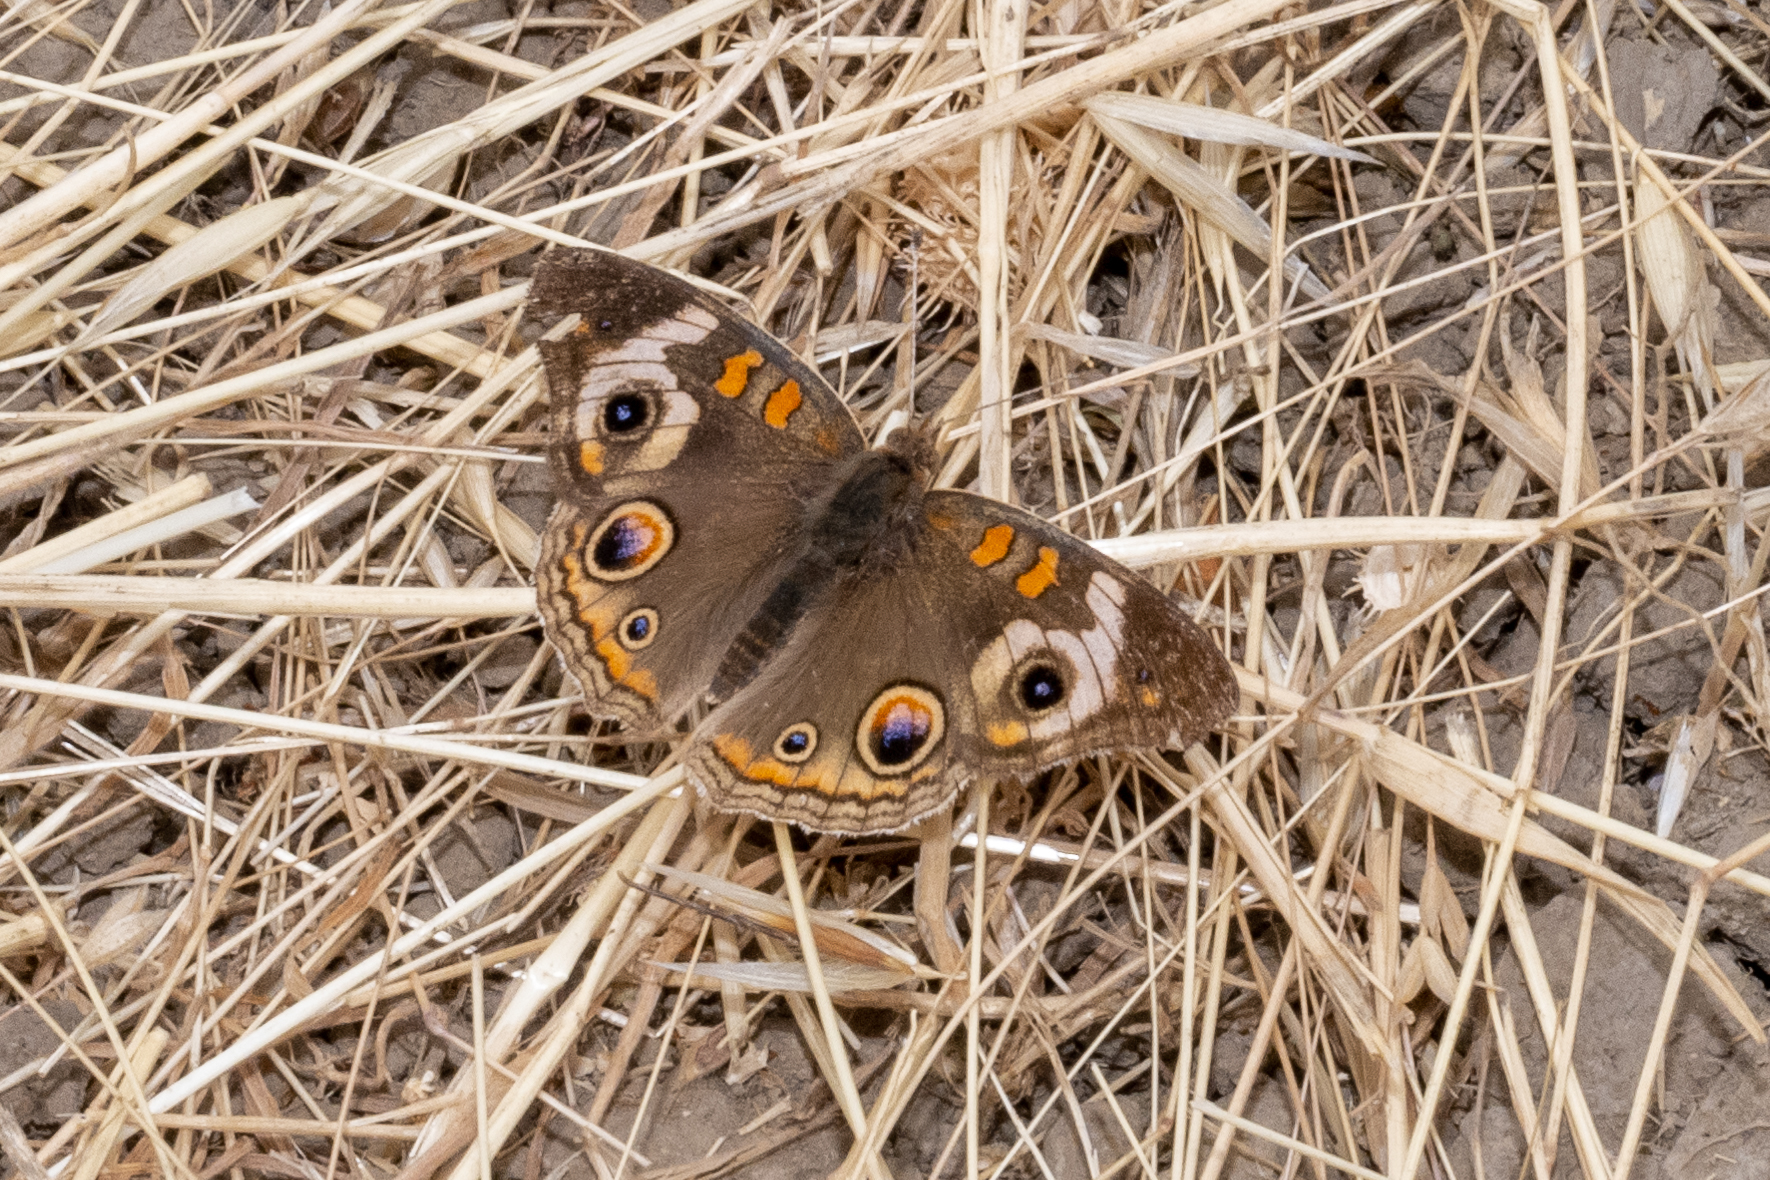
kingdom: Animalia
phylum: Arthropoda
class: Insecta
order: Lepidoptera
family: Nymphalidae
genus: Junonia
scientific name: Junonia grisea
